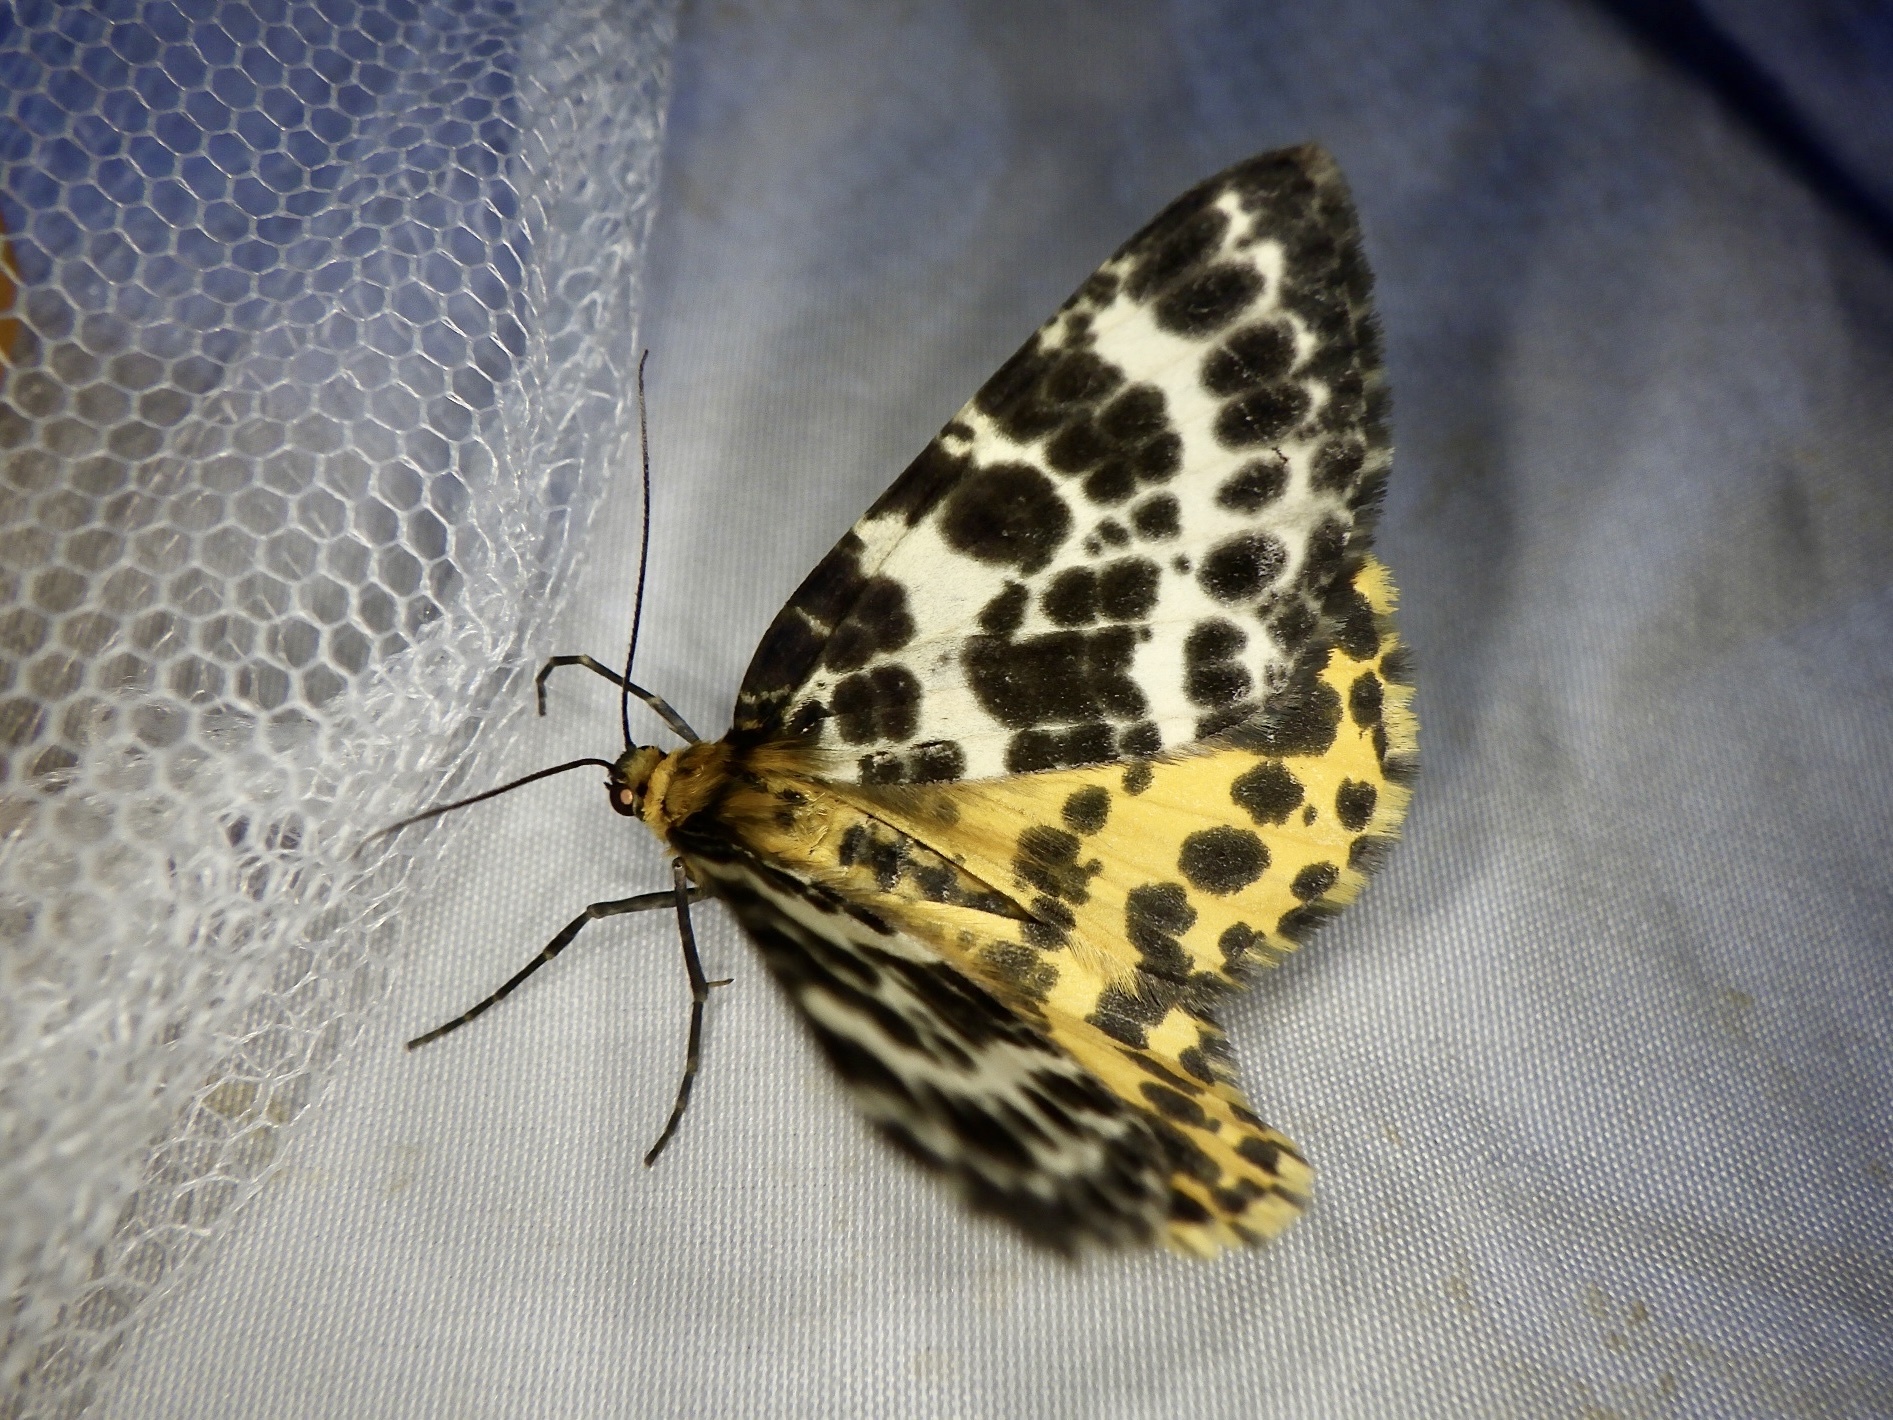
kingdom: Animalia
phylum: Arthropoda
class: Insecta
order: Lepidoptera
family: Geometridae
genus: Arichanna
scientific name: Arichanna melanaria
